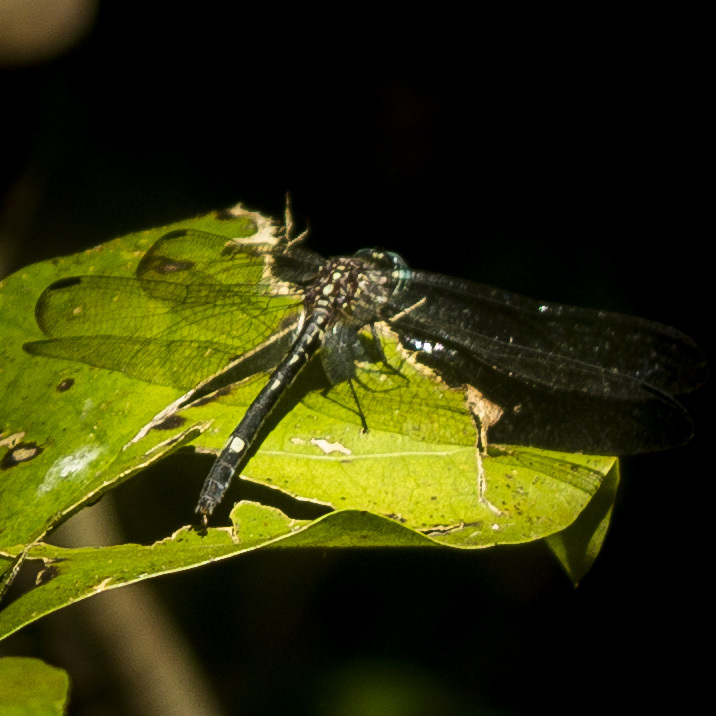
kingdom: Animalia
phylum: Arthropoda
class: Insecta
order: Odonata
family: Libellulidae
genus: Dythemis
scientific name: Dythemis nigra
